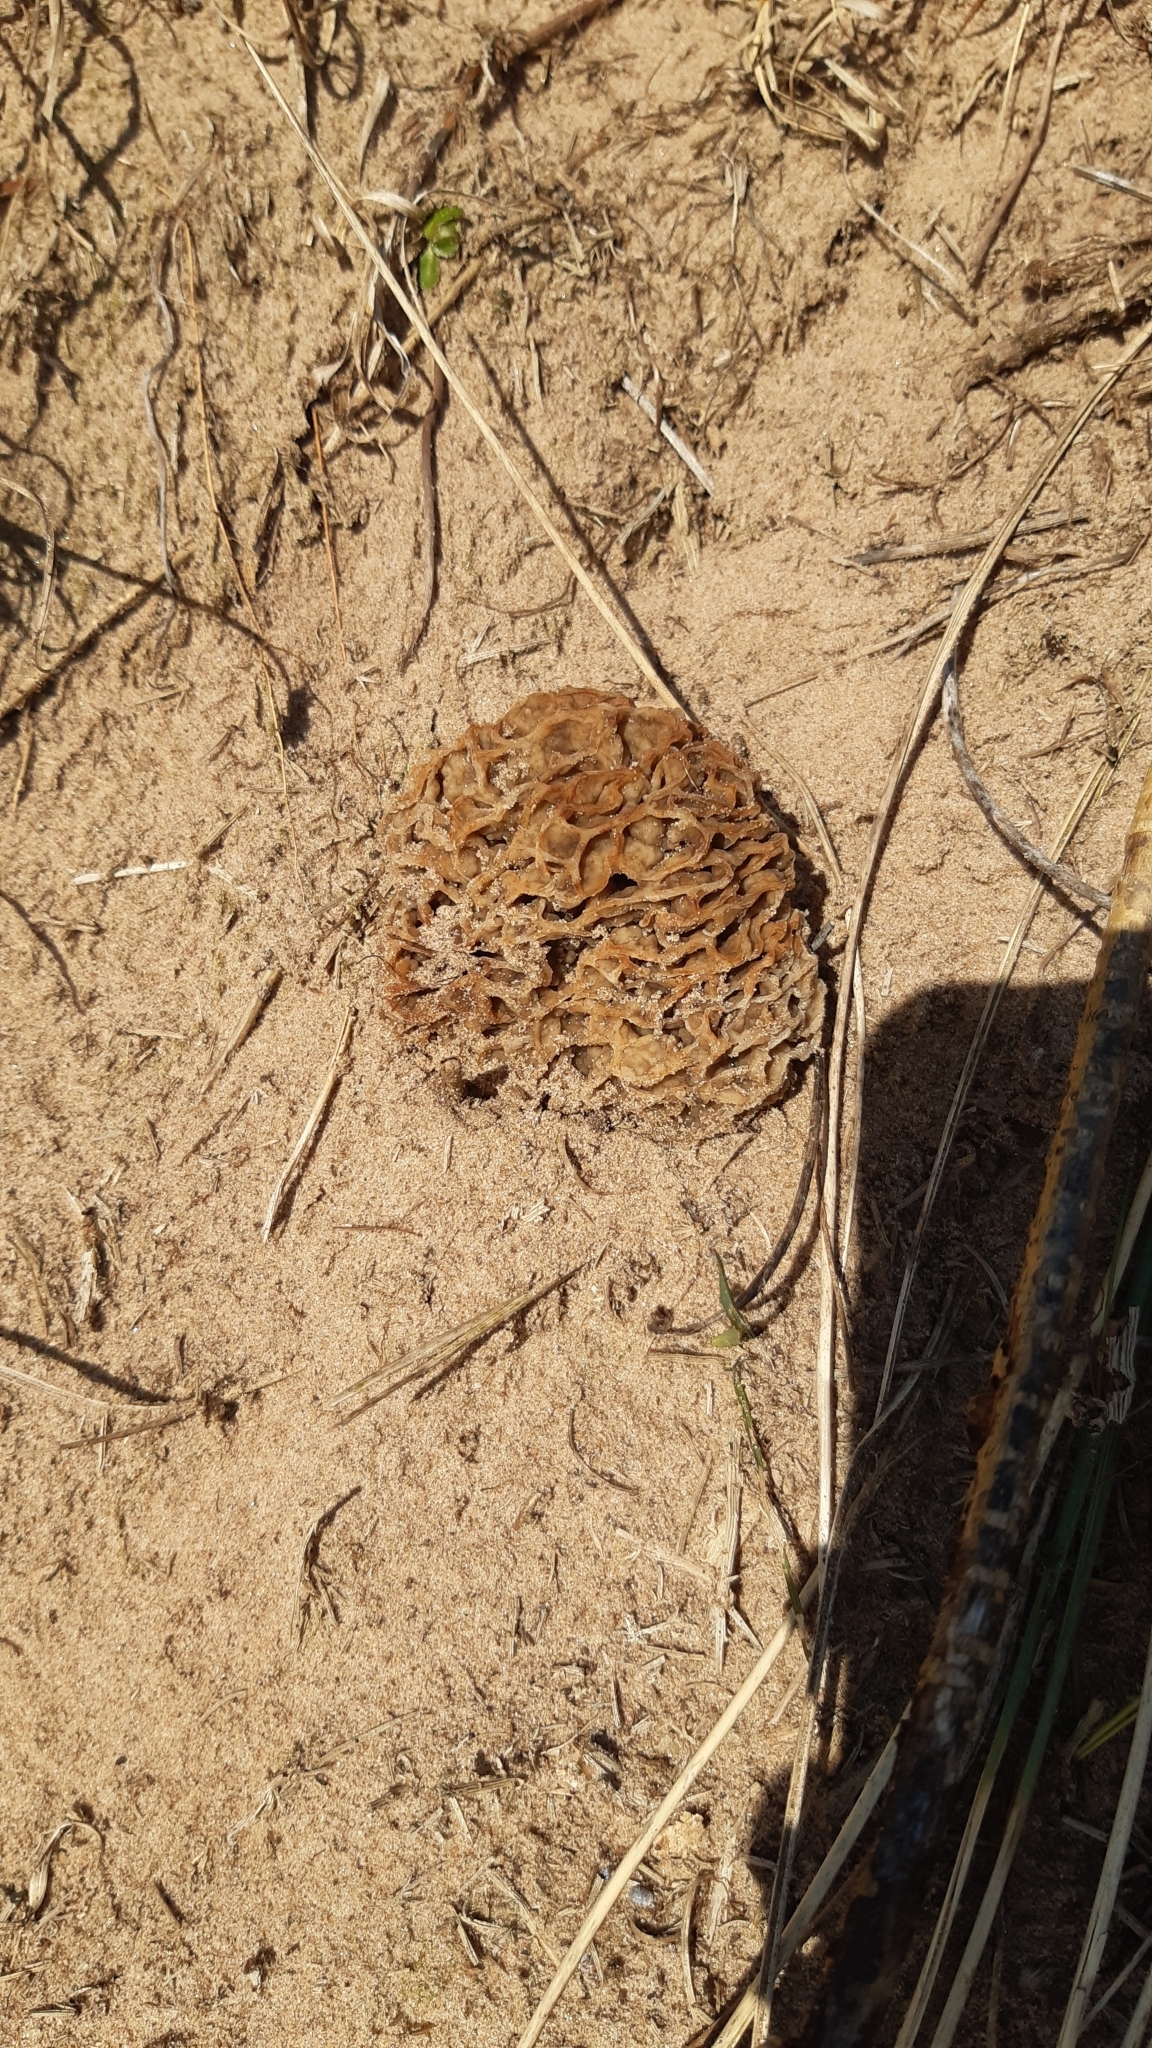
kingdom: Fungi
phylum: Ascomycota
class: Pezizomycetes
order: Pezizales
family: Morchellaceae
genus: Morchella
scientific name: Morchella esculenta
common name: Morel
